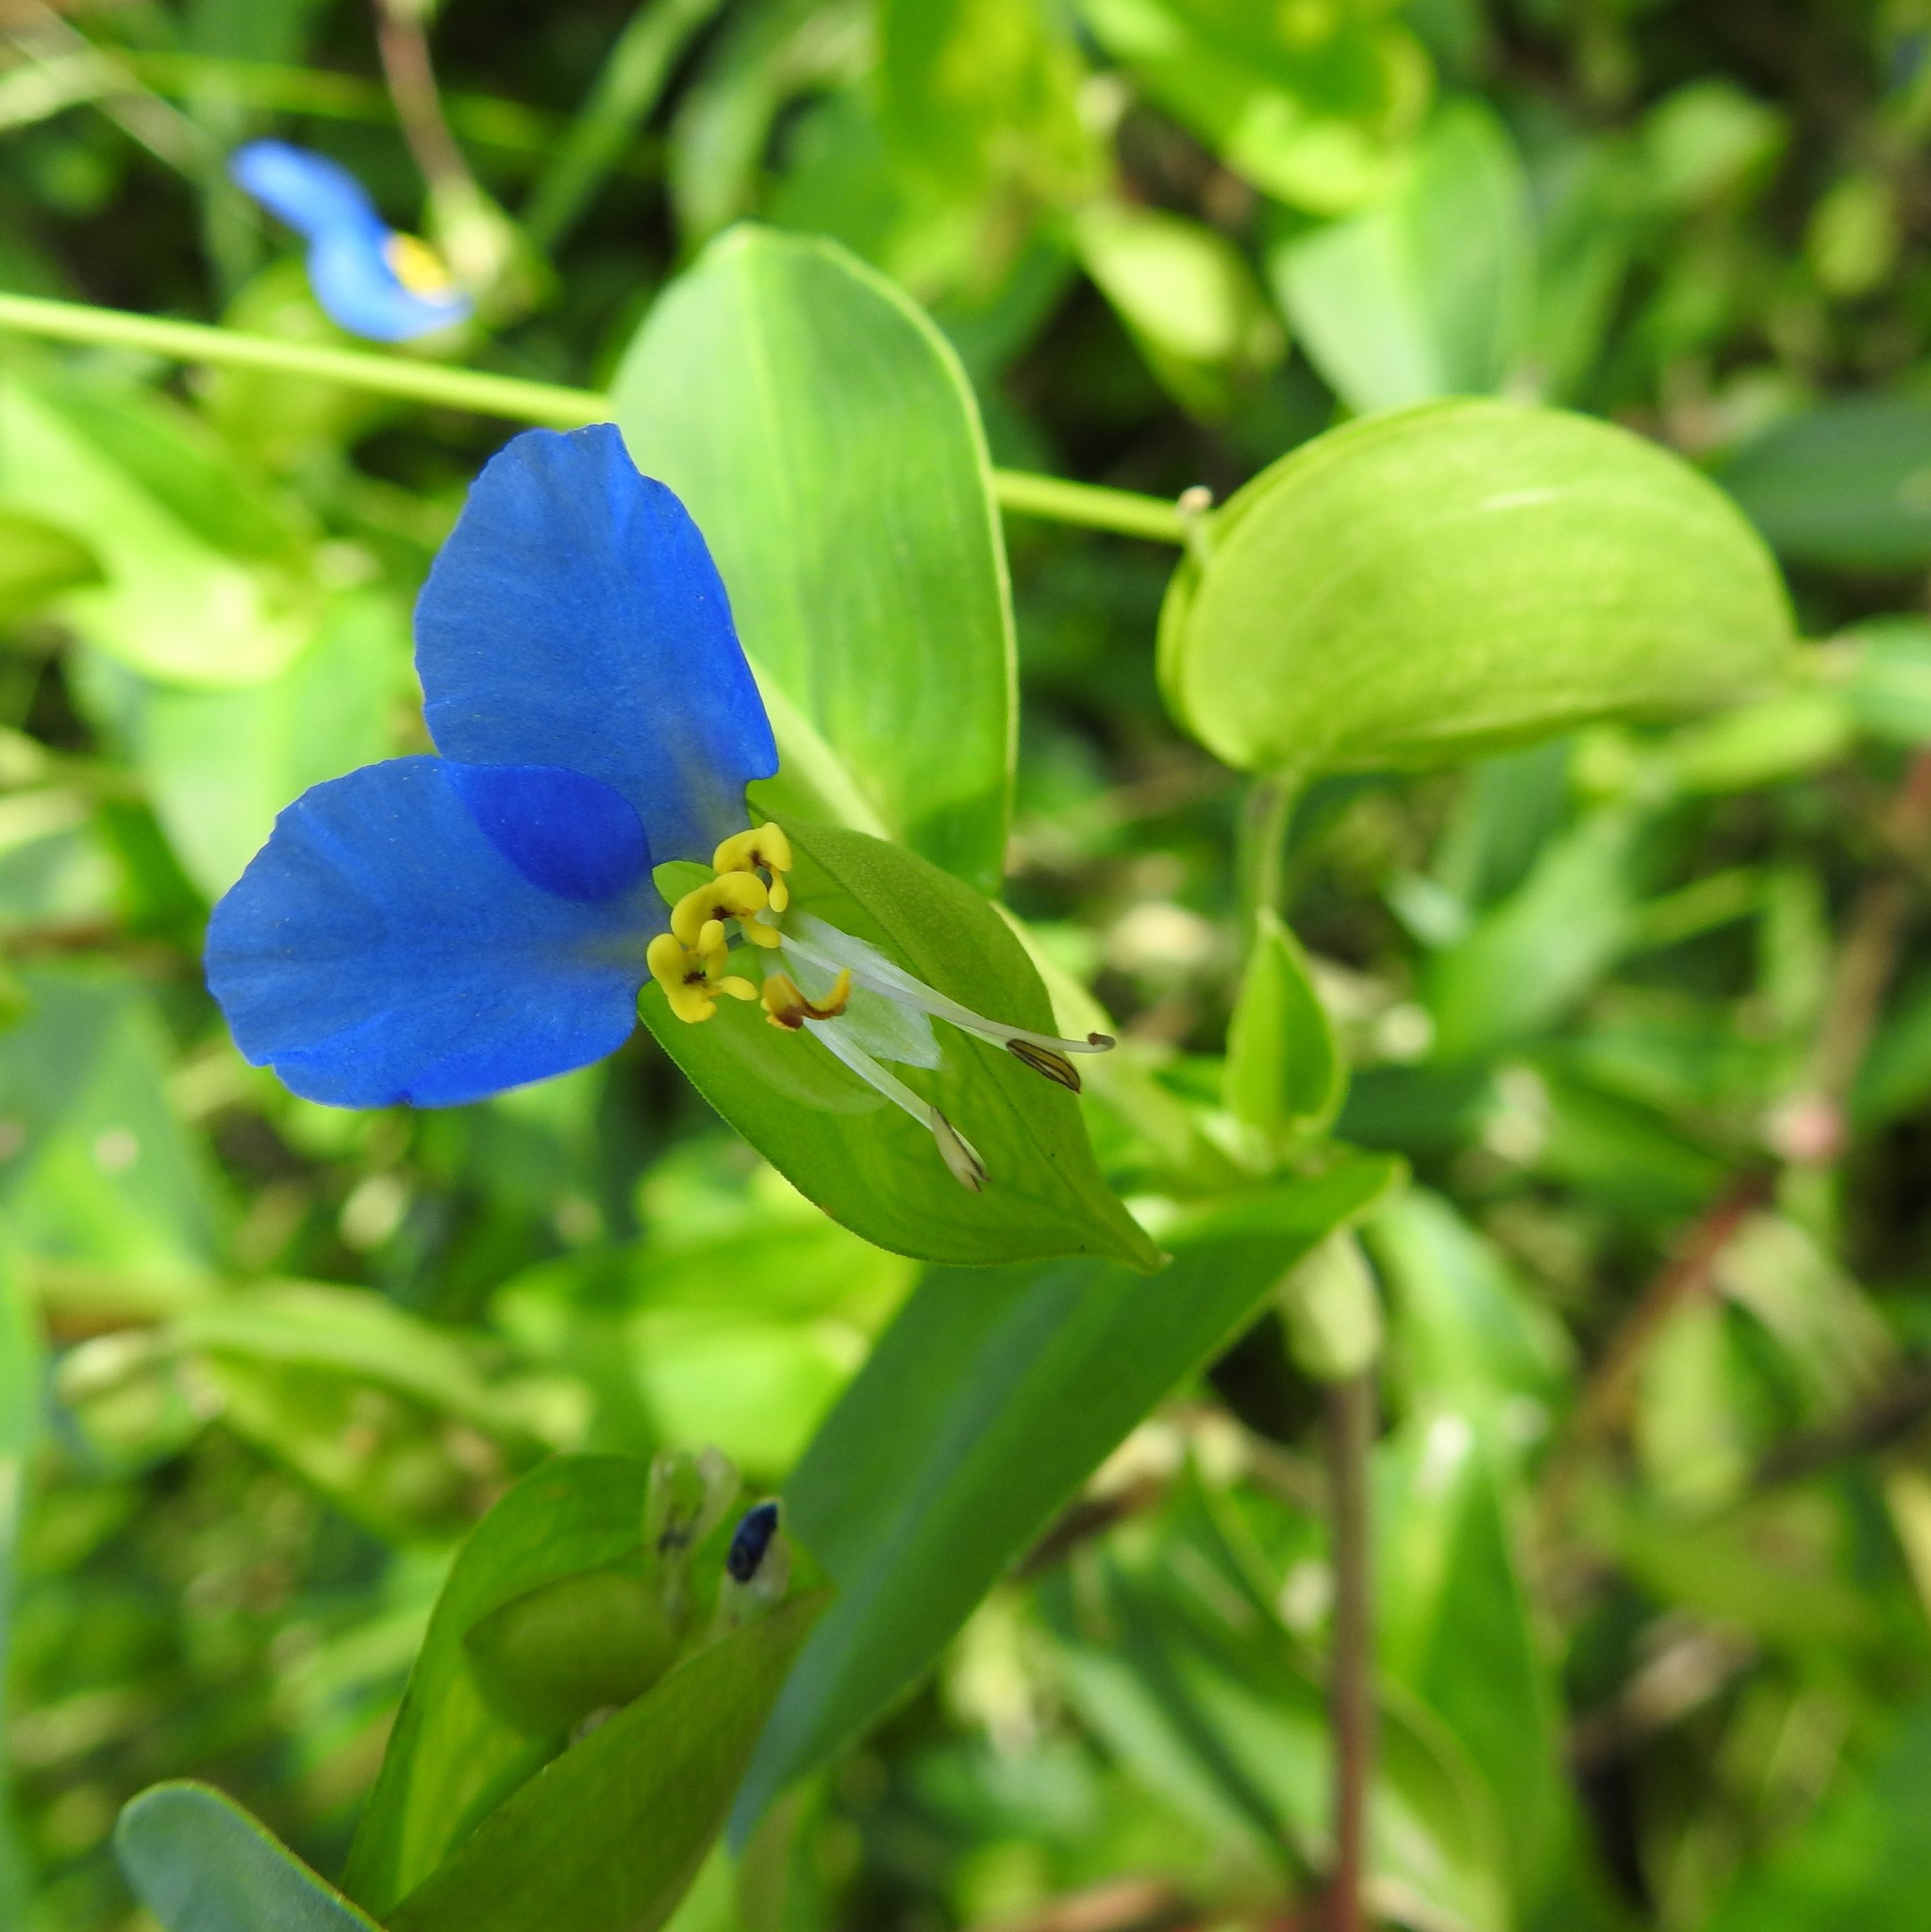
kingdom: Plantae
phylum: Tracheophyta
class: Liliopsida
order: Commelinales
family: Commelinaceae
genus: Commelina
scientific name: Commelina communis
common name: Asiatic dayflower
